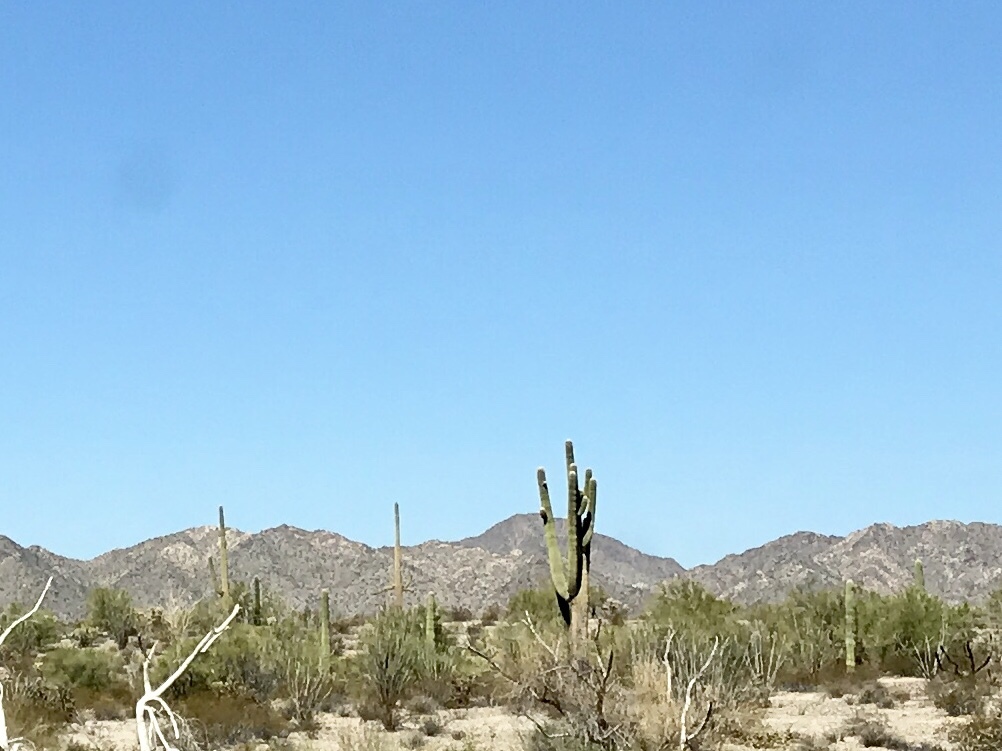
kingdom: Plantae
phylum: Tracheophyta
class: Magnoliopsida
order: Caryophyllales
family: Cactaceae
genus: Carnegiea
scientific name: Carnegiea gigantea
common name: Saguaro
